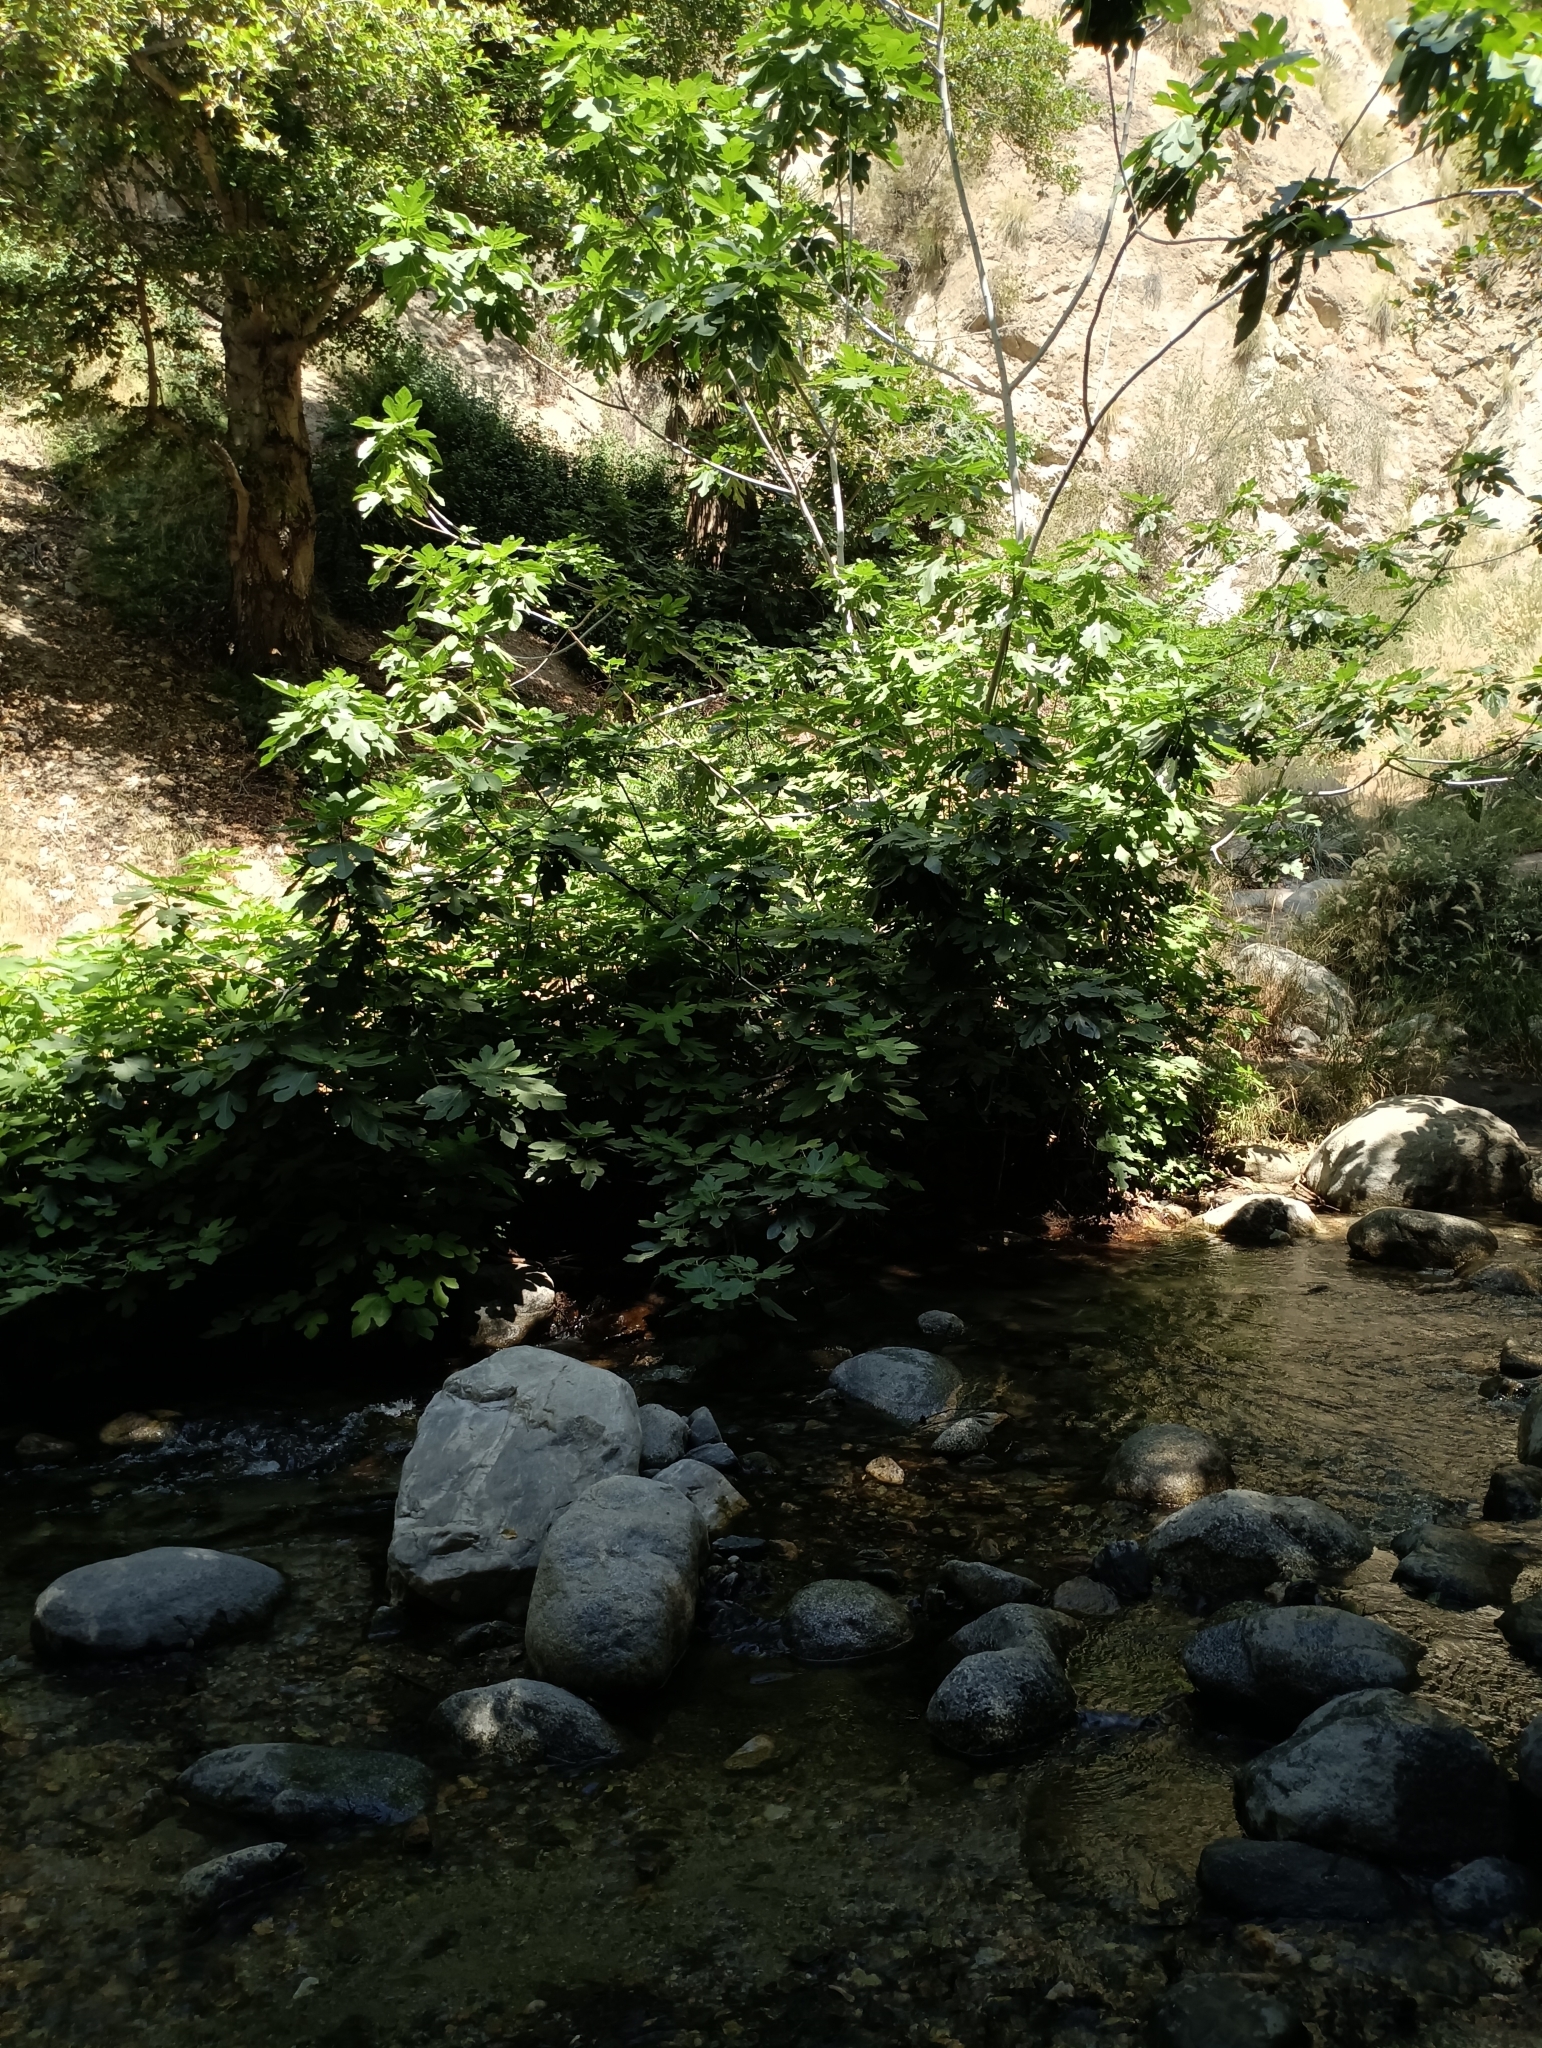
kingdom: Plantae
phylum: Tracheophyta
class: Magnoliopsida
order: Rosales
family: Moraceae
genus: Ficus
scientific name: Ficus carica
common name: Fig
